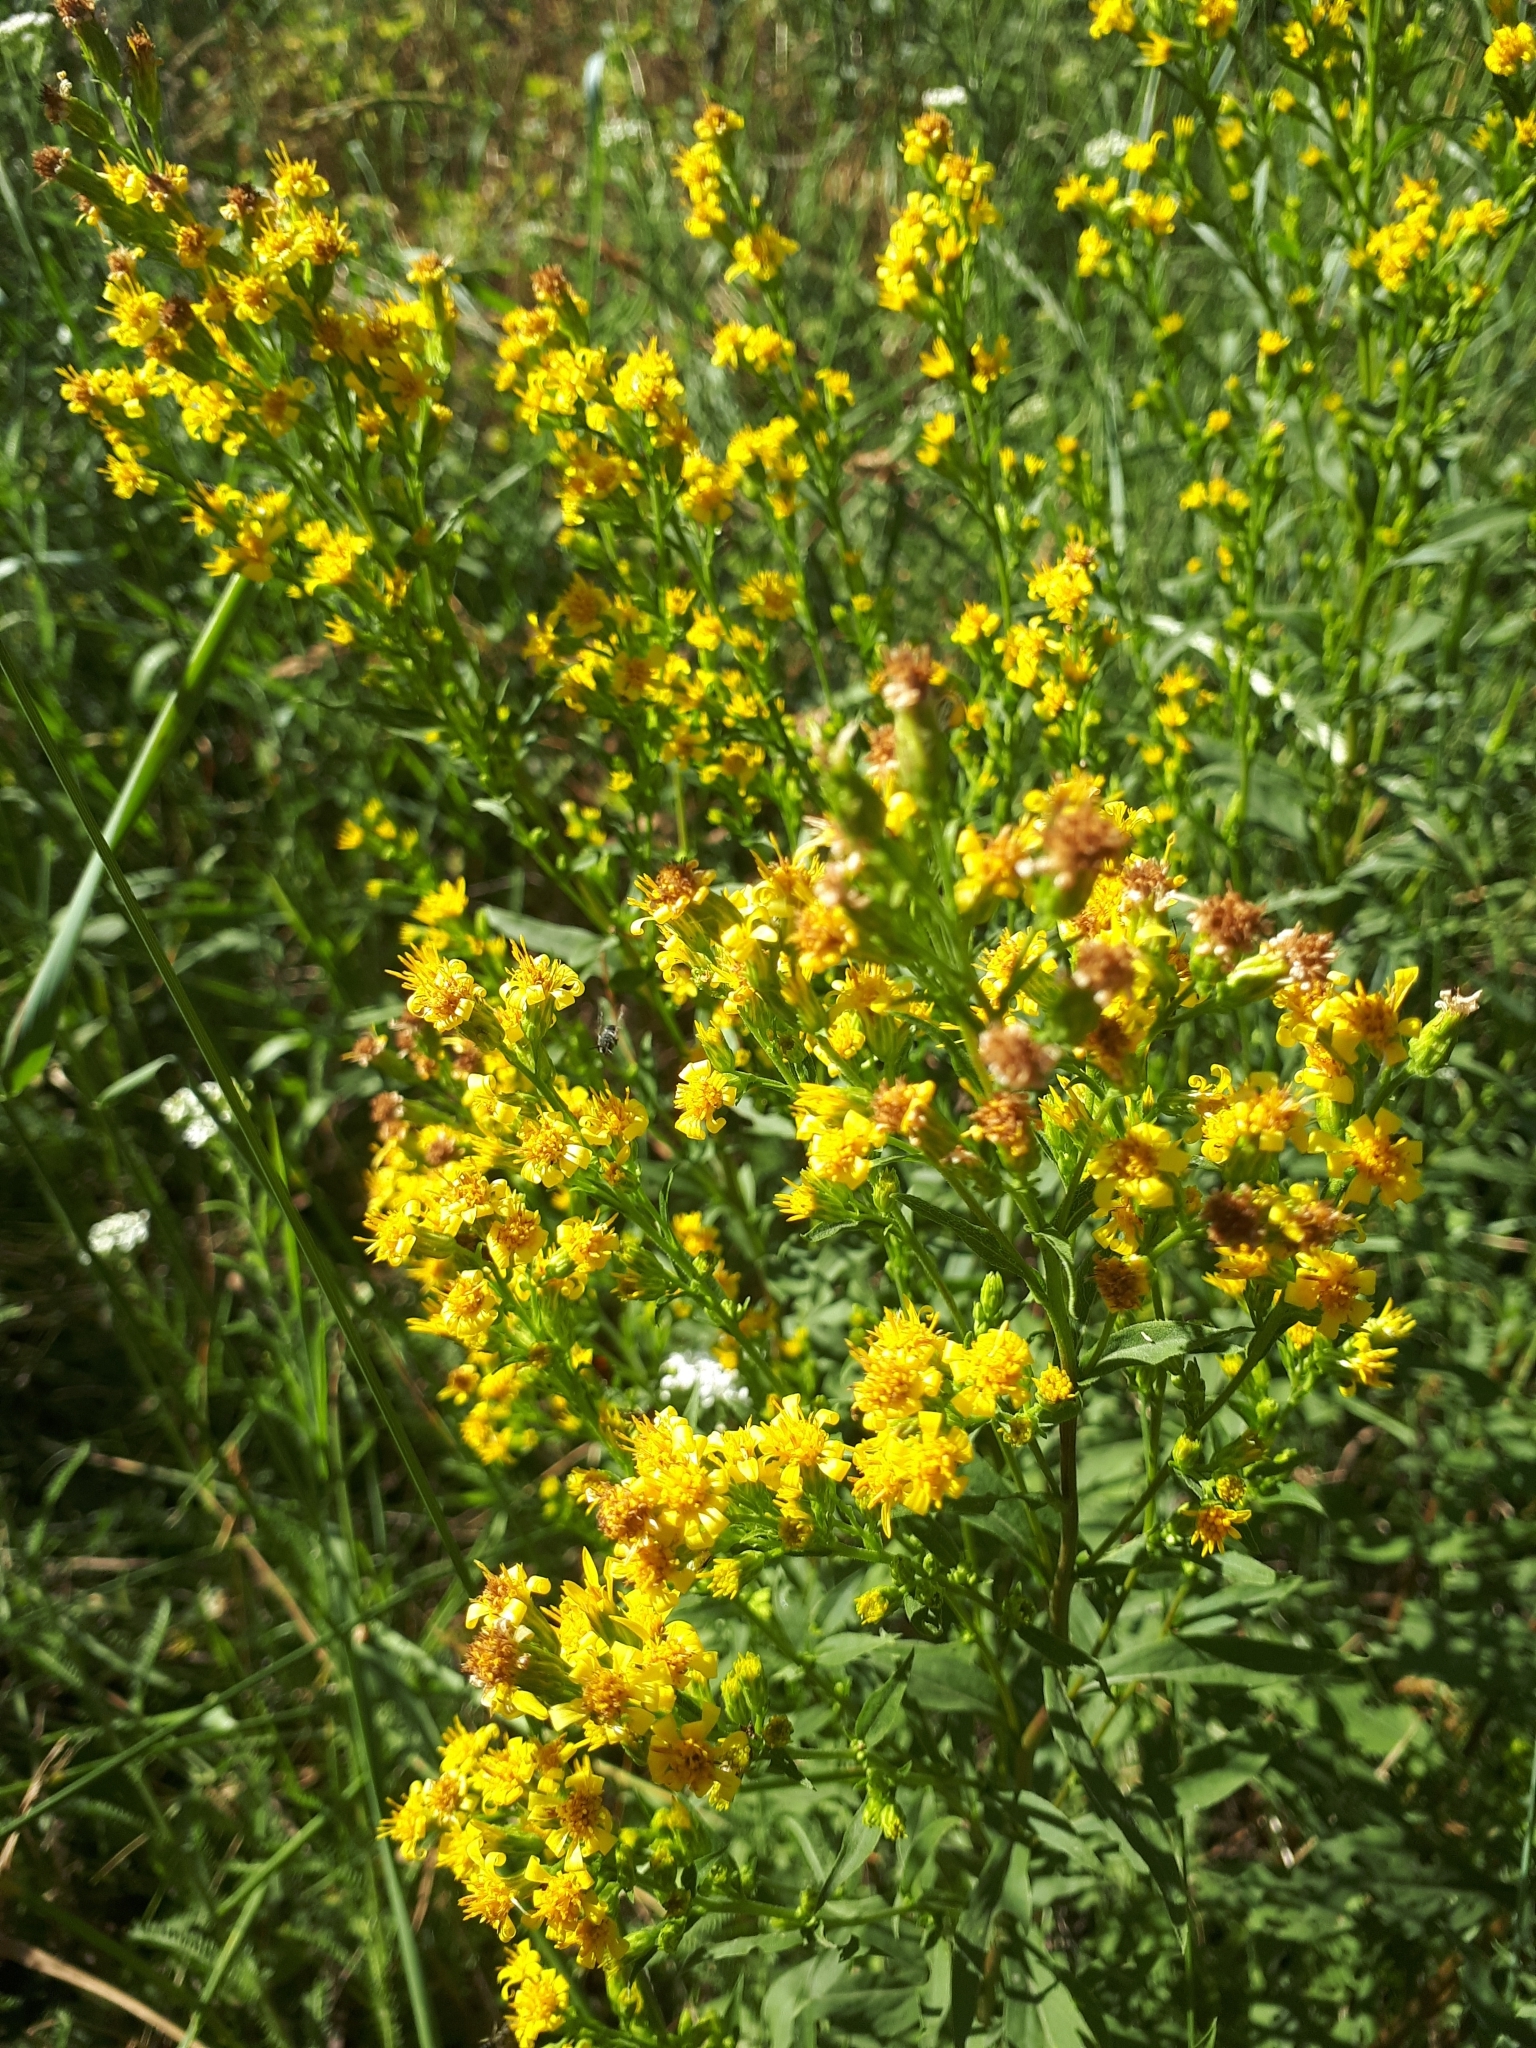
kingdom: Plantae
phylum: Tracheophyta
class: Magnoliopsida
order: Asterales
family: Asteraceae
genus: Solidago
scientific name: Solidago virgaurea
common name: Goldenrod
